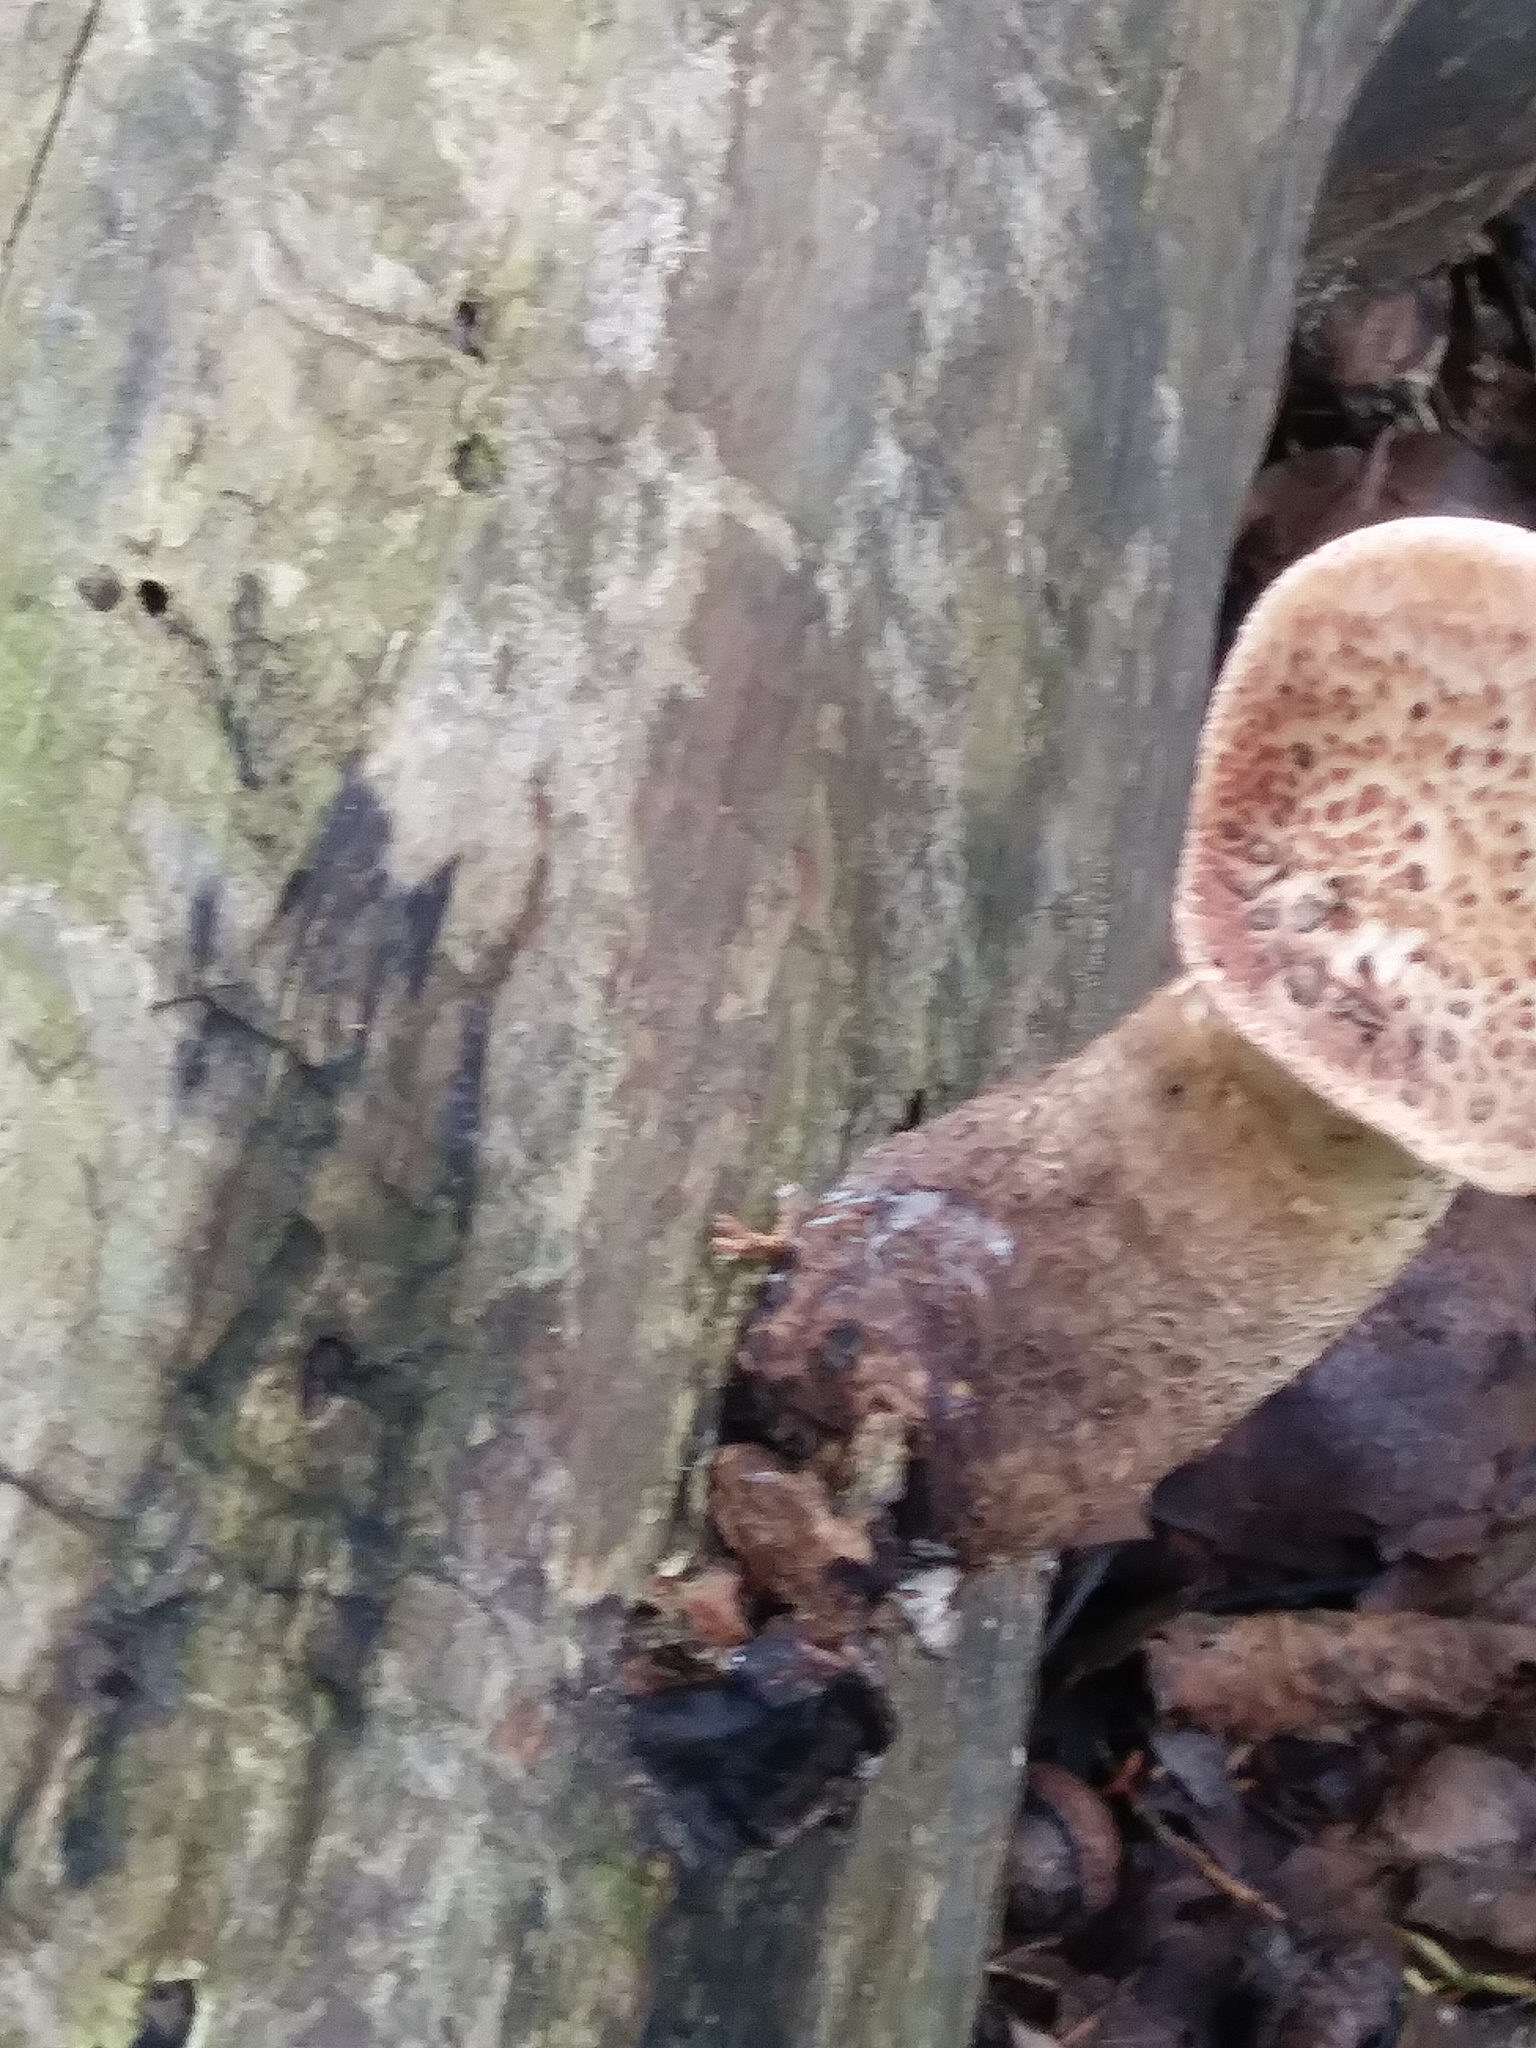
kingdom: Fungi
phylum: Basidiomycota
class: Agaricomycetes
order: Polyporales
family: Polyporaceae
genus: Cerioporus
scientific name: Cerioporus squamosus
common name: Dryad's saddle
